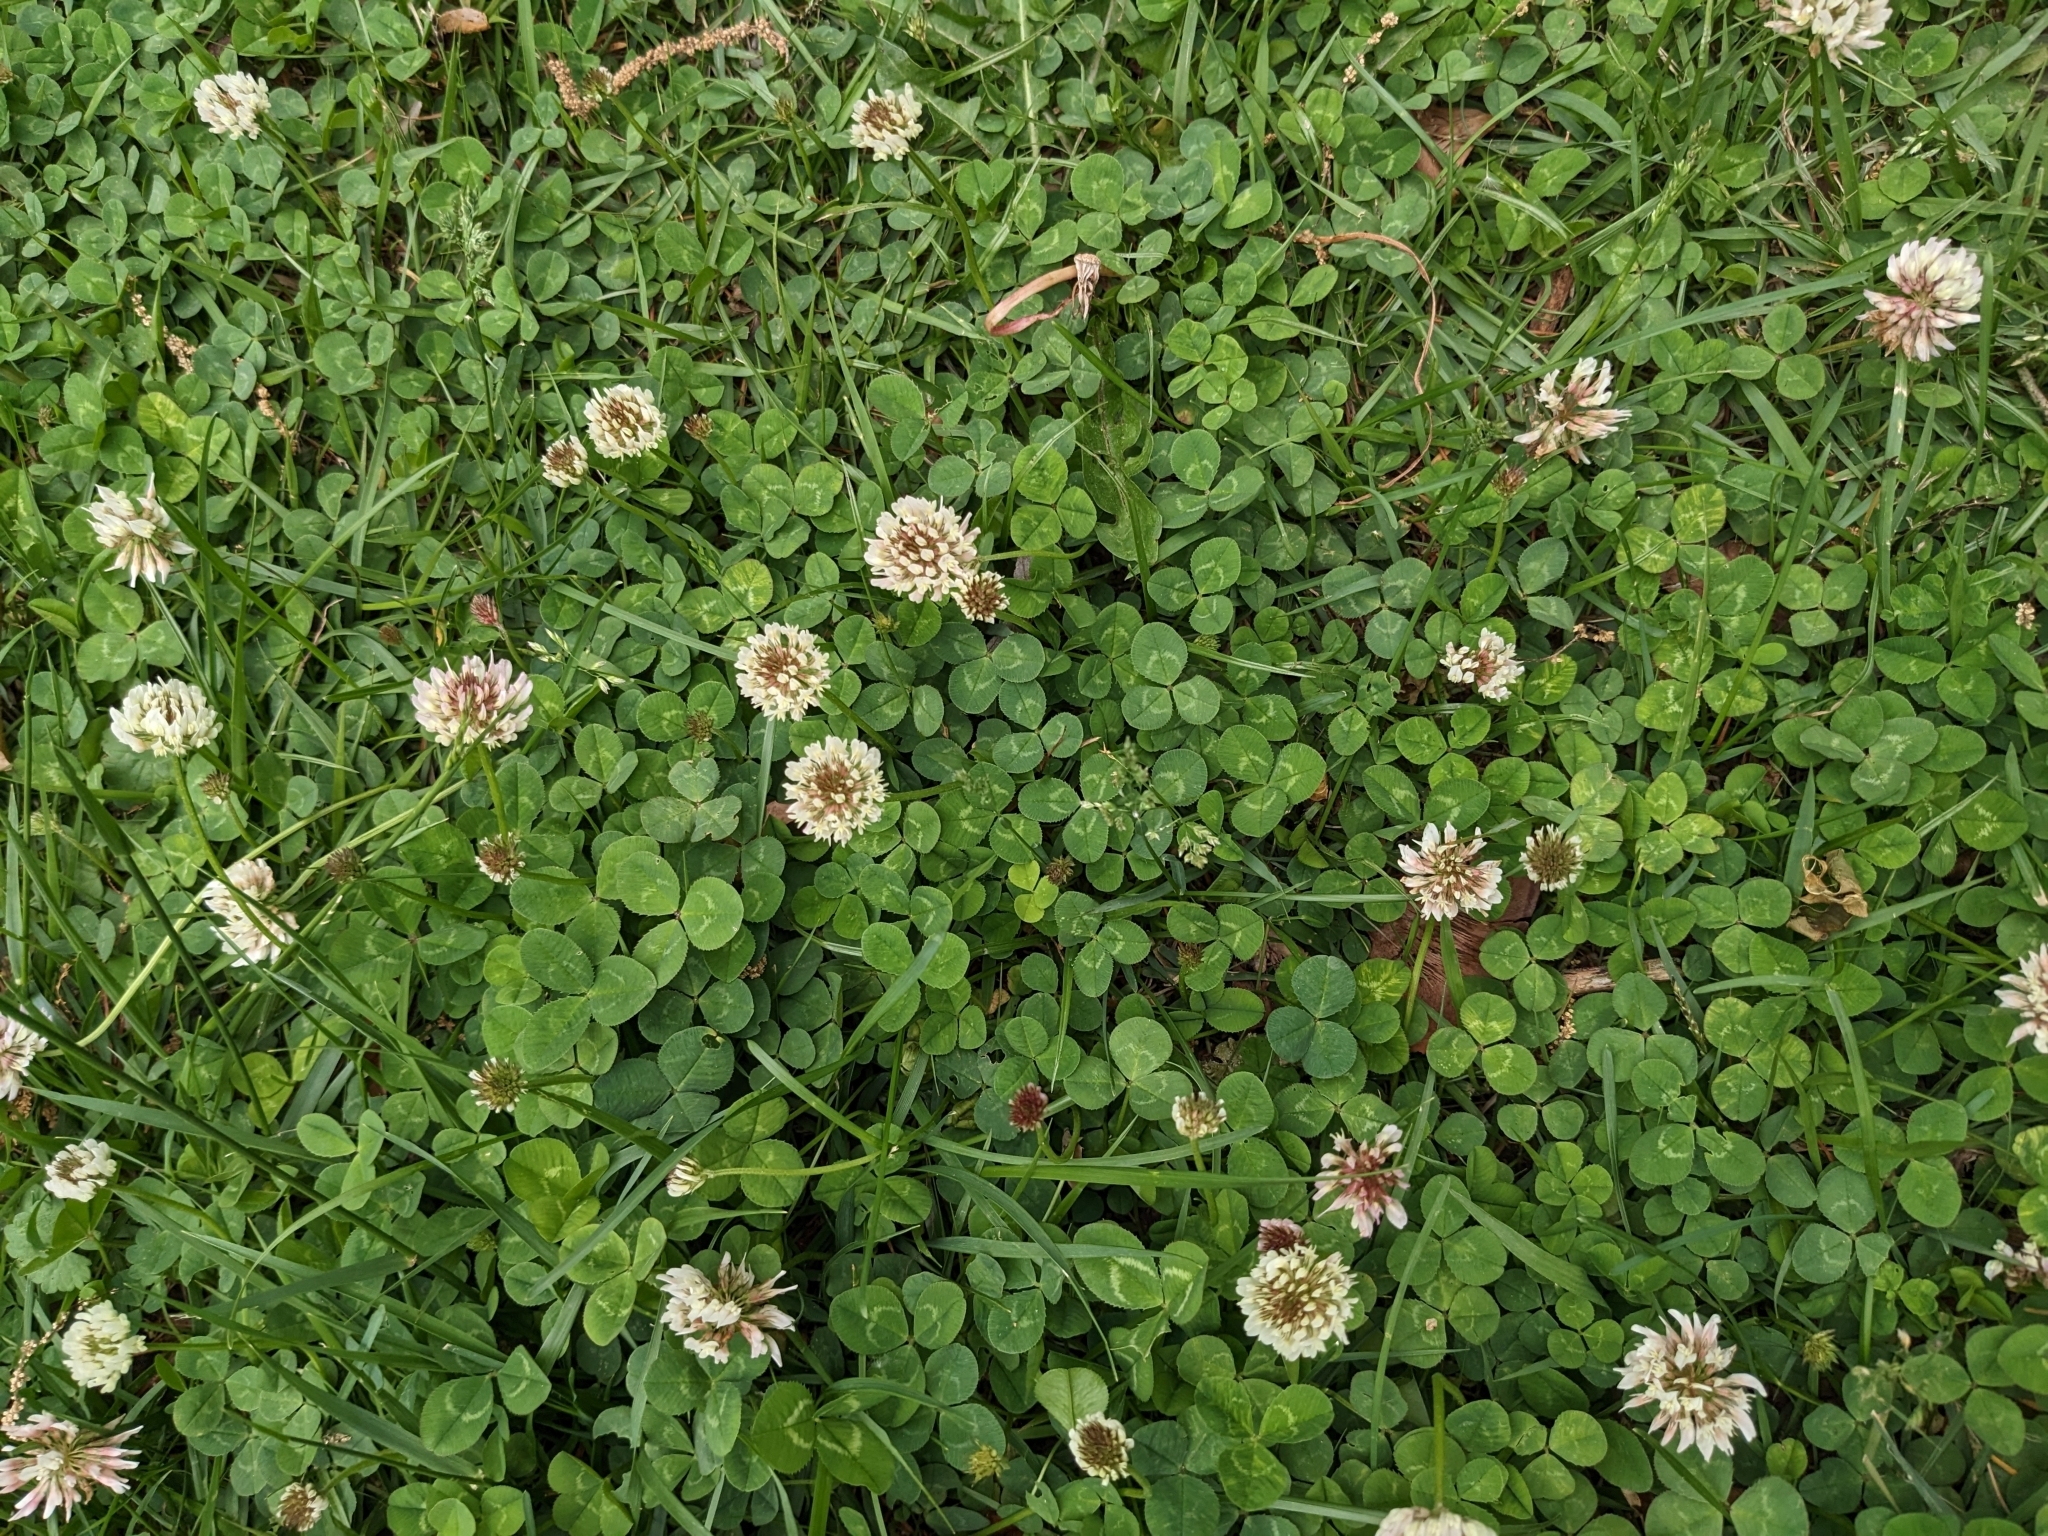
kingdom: Plantae
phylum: Tracheophyta
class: Magnoliopsida
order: Fabales
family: Fabaceae
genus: Trifolium
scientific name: Trifolium repens
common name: White clover
